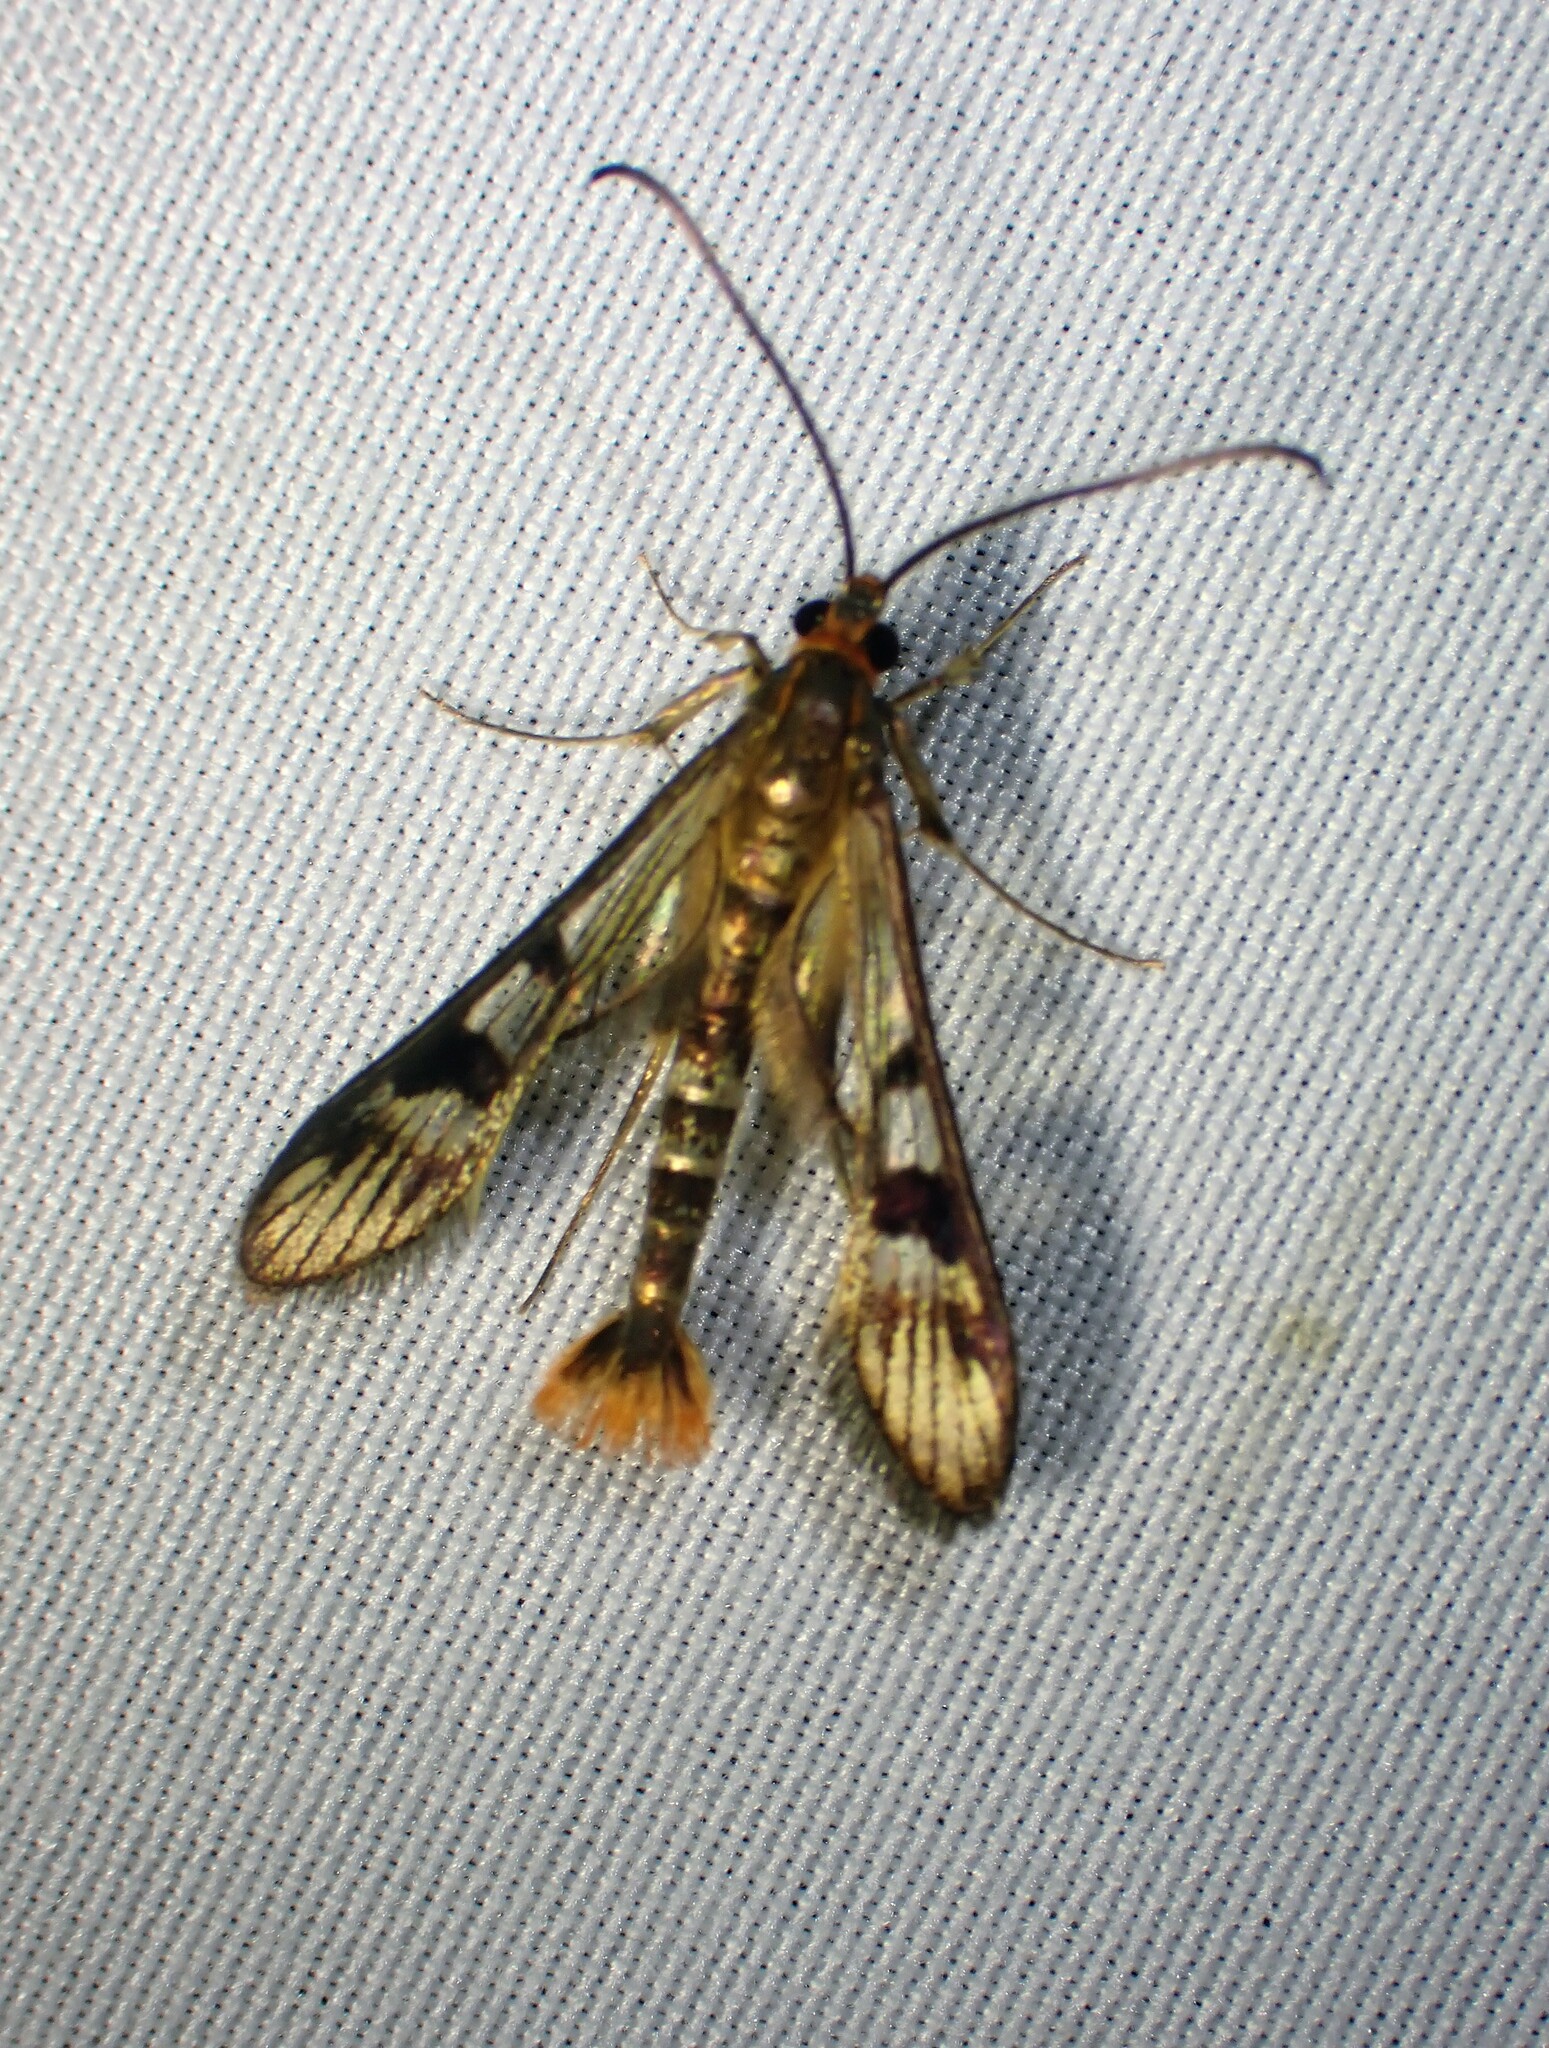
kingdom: Animalia
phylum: Arthropoda
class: Insecta
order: Lepidoptera
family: Sesiidae
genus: Synanthedon
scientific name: Synanthedon acerni
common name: Maple callus borer moth
